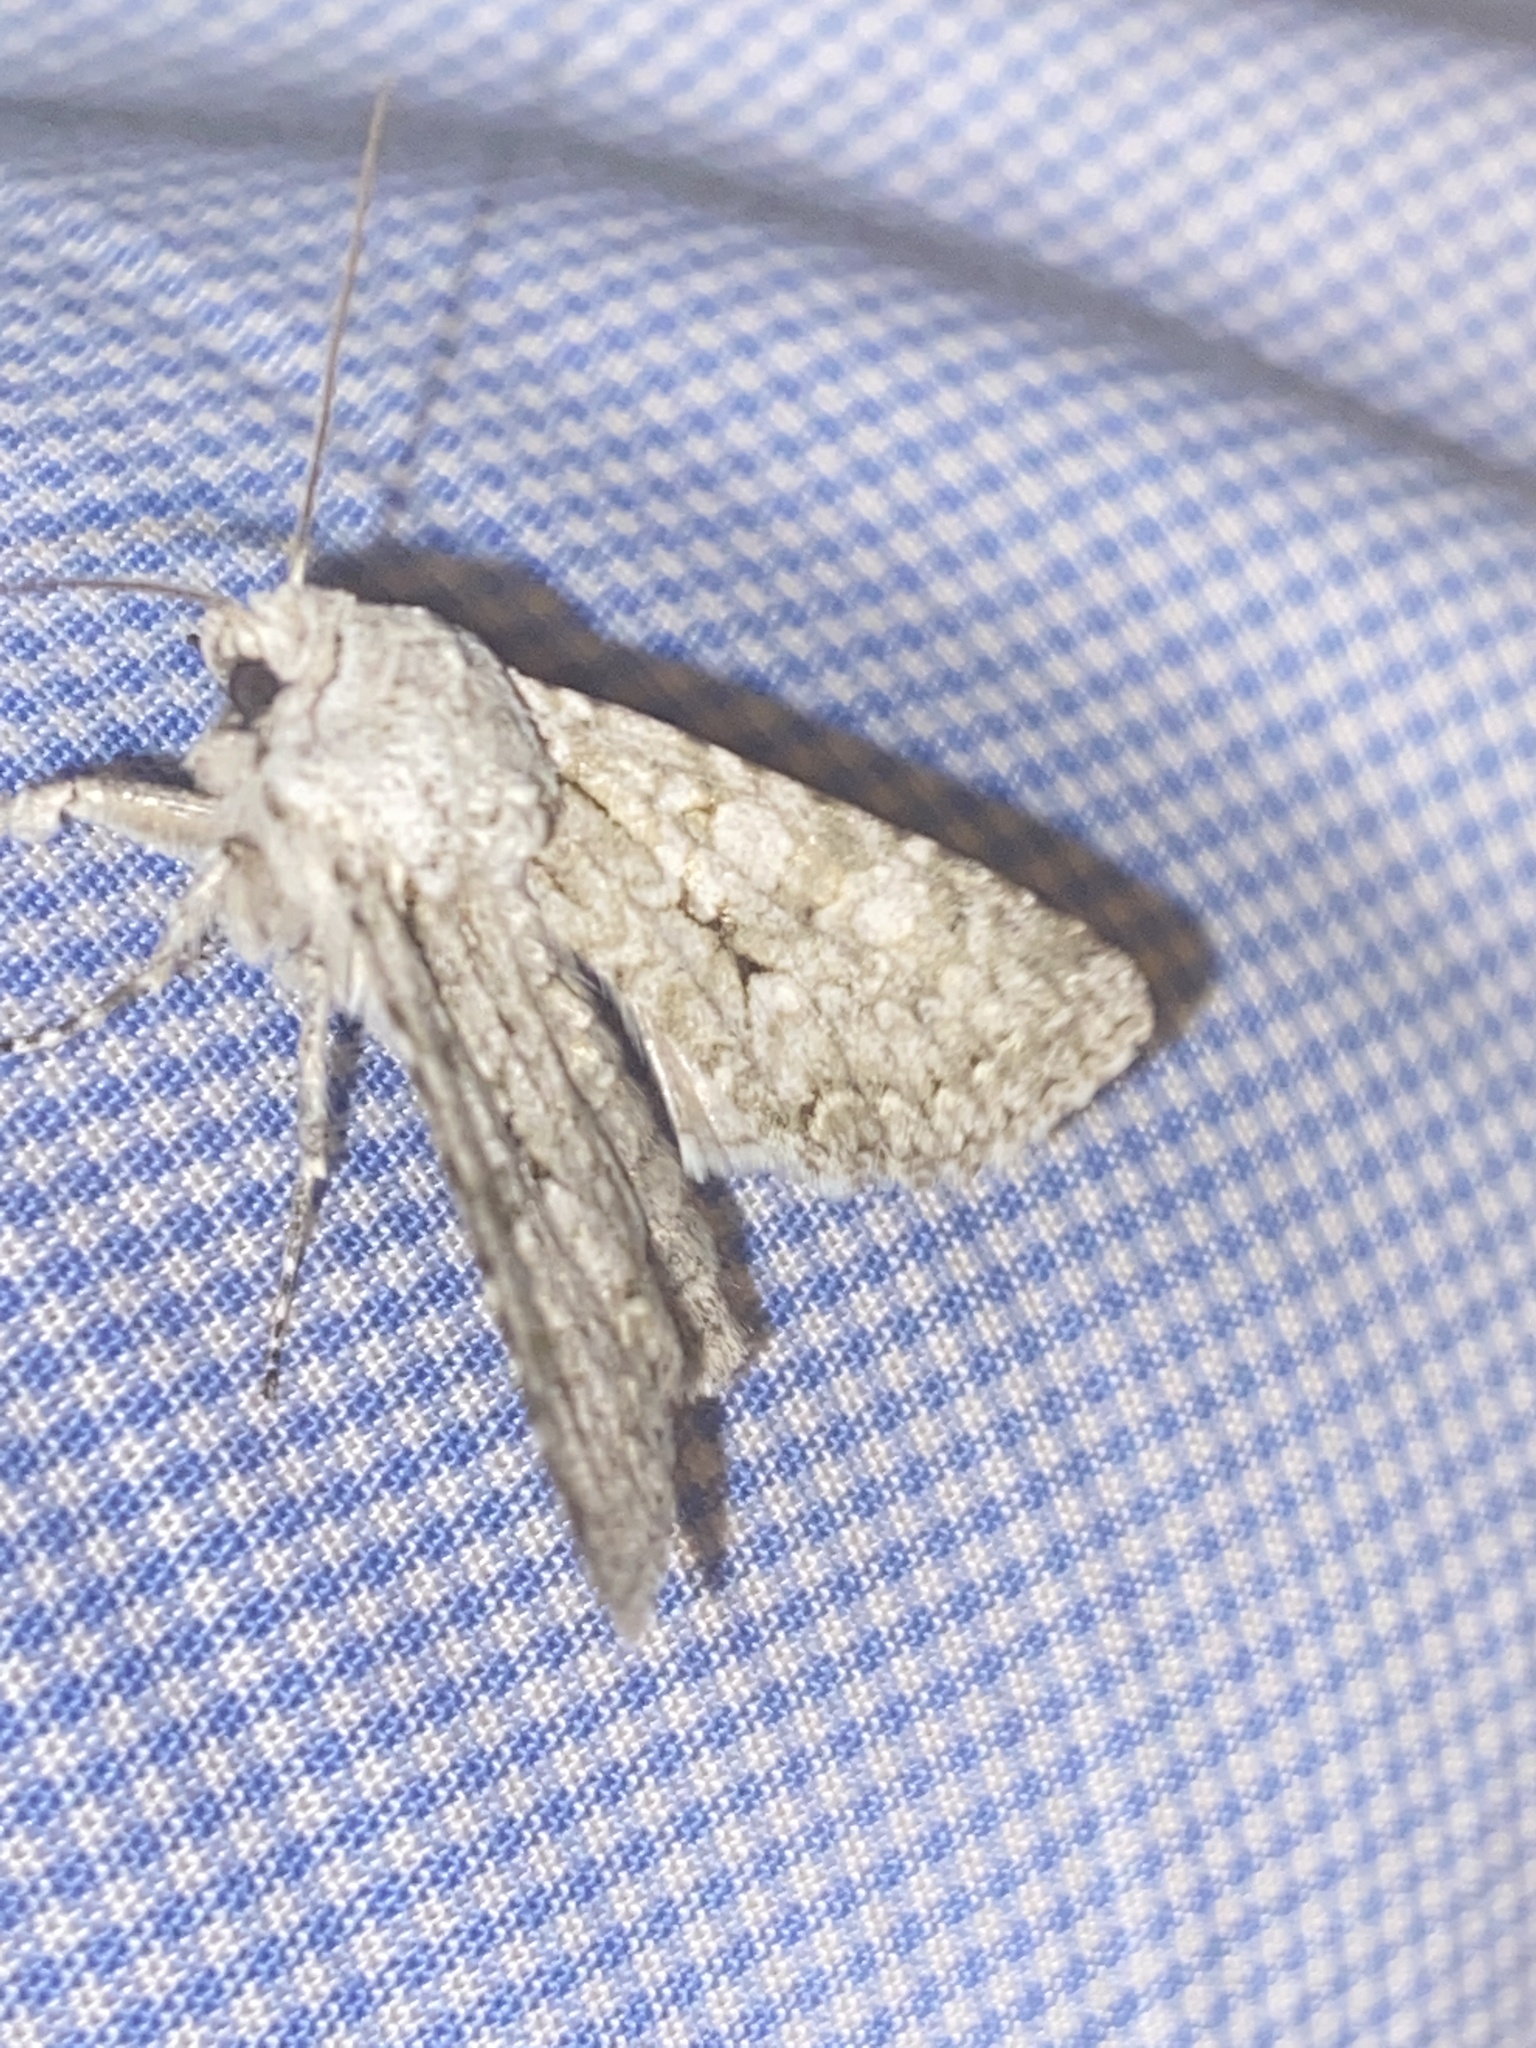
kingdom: Animalia
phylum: Arthropoda
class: Insecta
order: Lepidoptera
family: Noctuidae
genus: Antitype
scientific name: Antitype chi
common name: Grey chi
